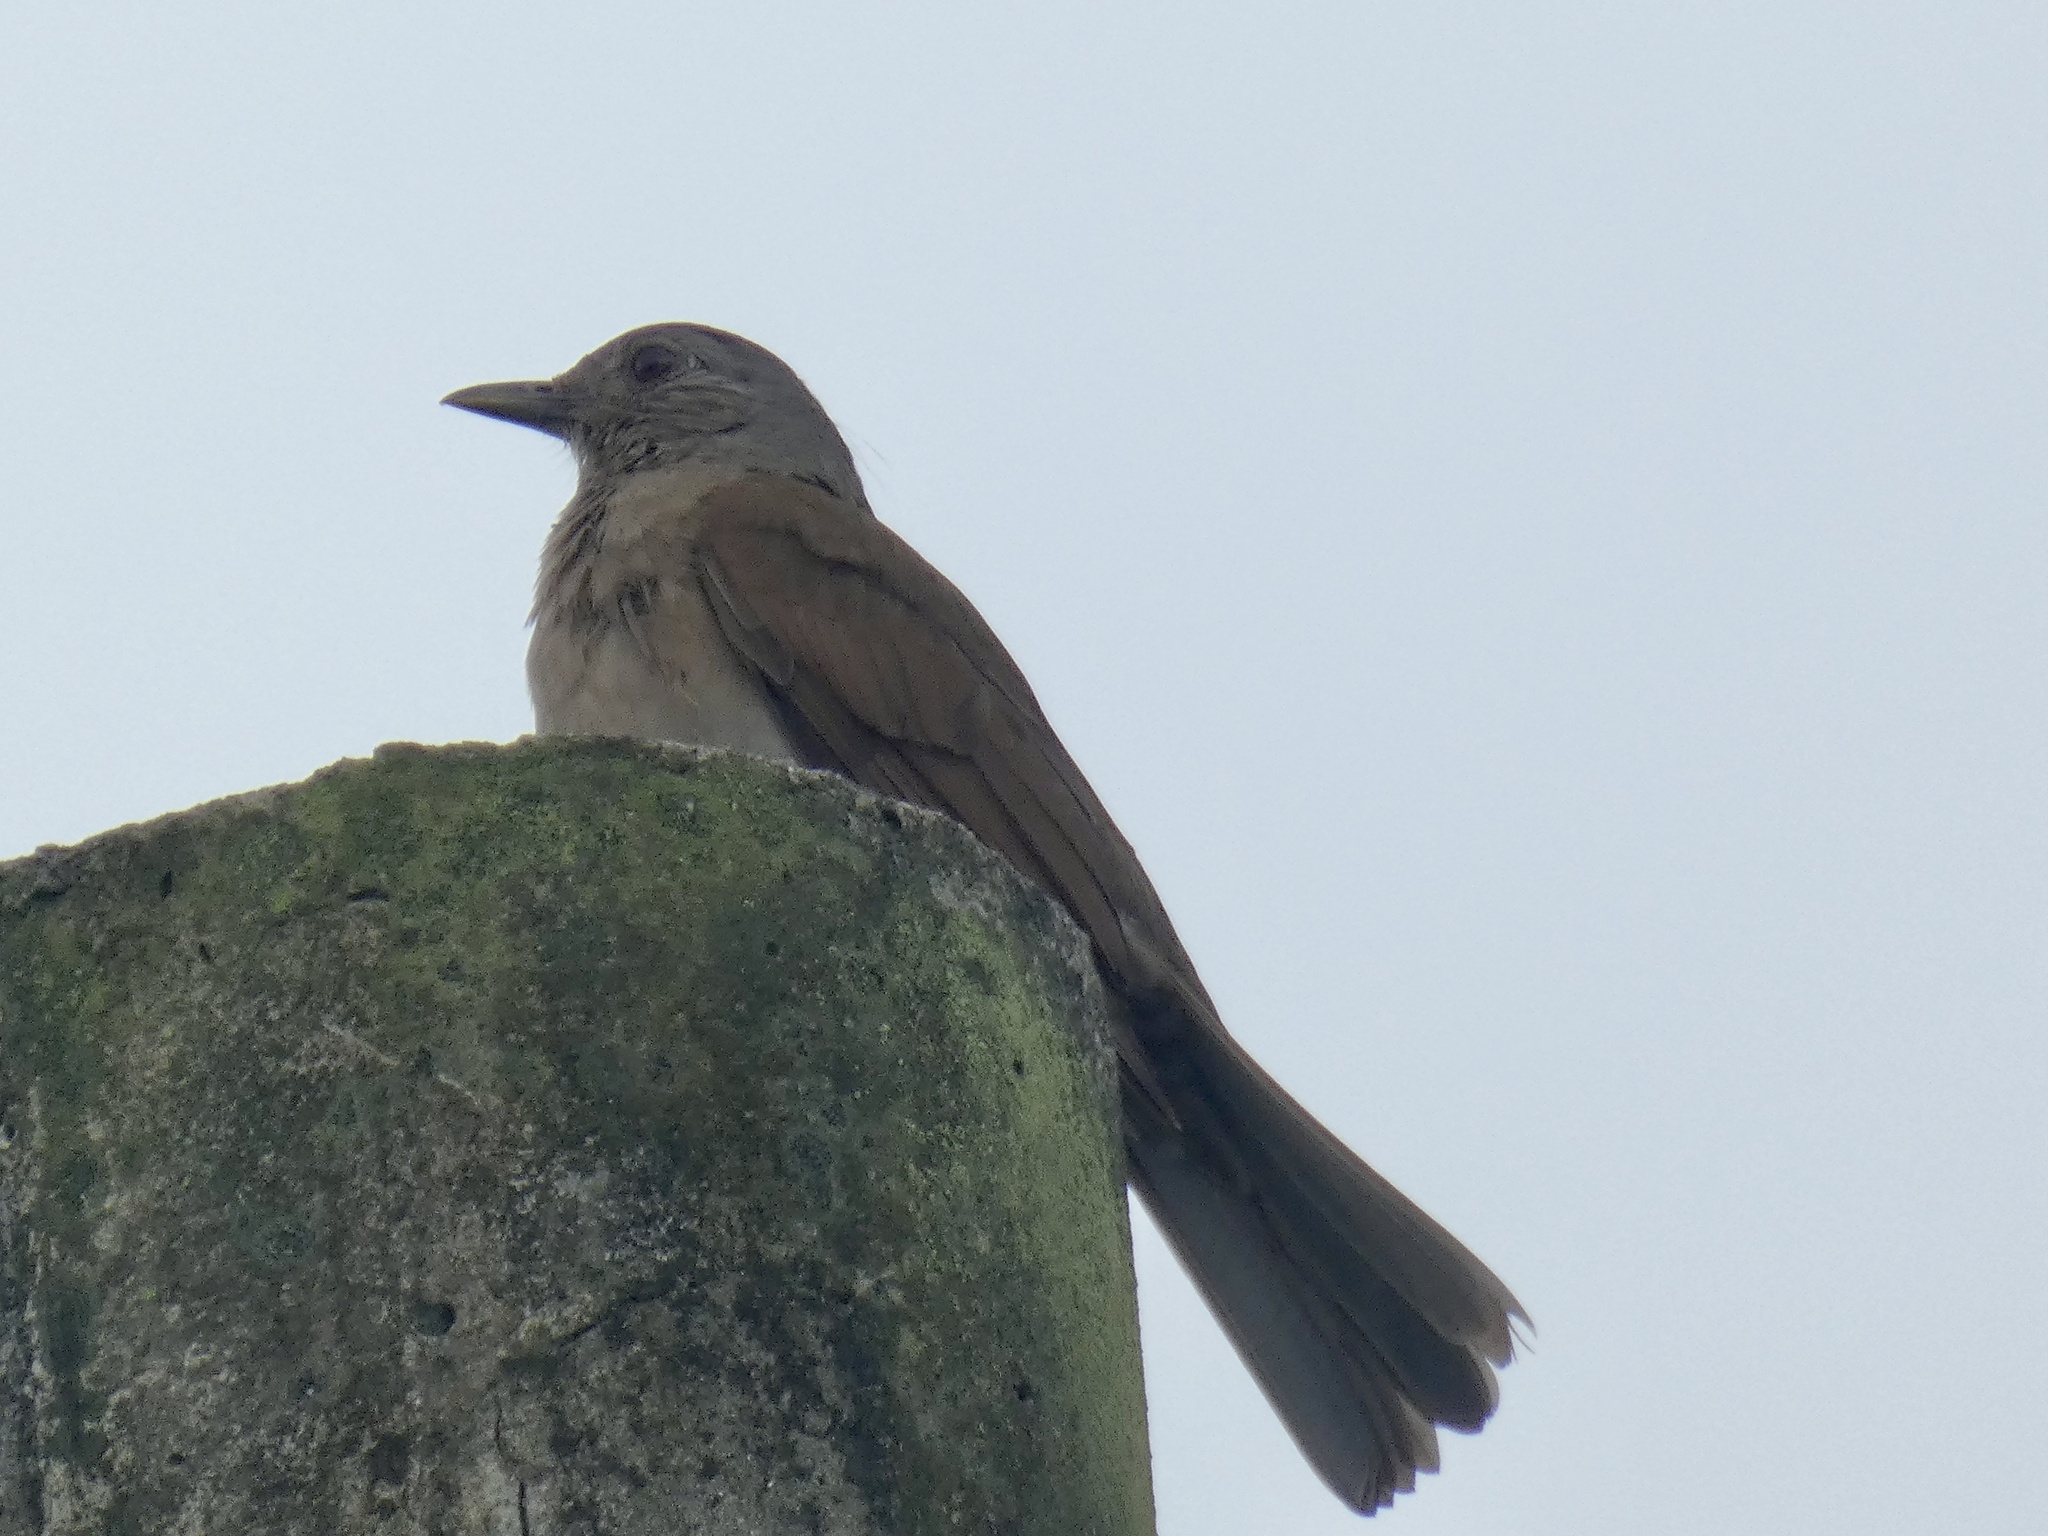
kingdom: Animalia
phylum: Chordata
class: Aves
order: Passeriformes
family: Turdidae
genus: Turdus
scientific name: Turdus leucomelas
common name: Pale-breasted thrush
